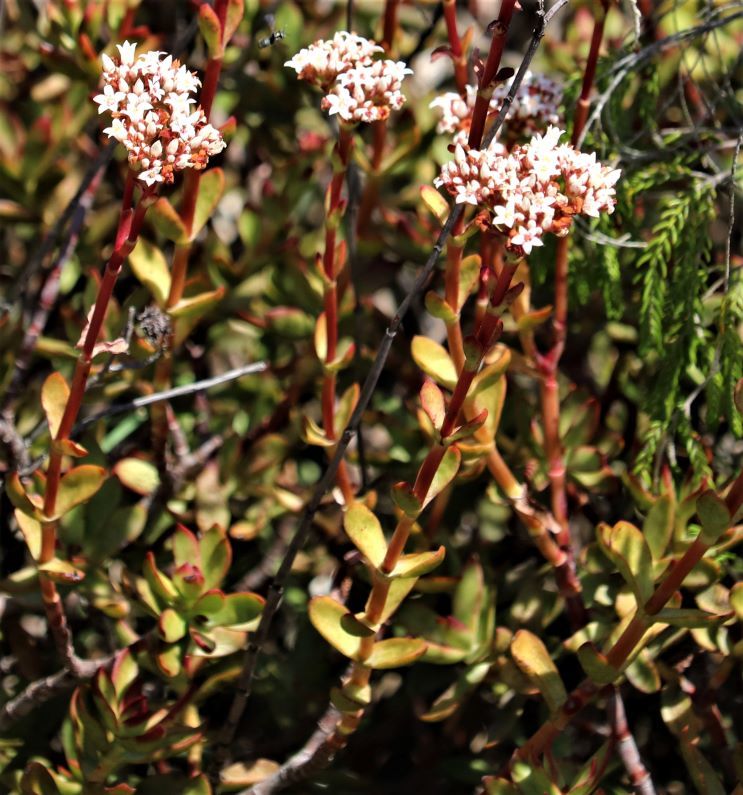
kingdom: Plantae
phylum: Tracheophyta
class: Magnoliopsida
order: Saxifragales
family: Crassulaceae
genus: Crassula
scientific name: Crassula rubricaulis
